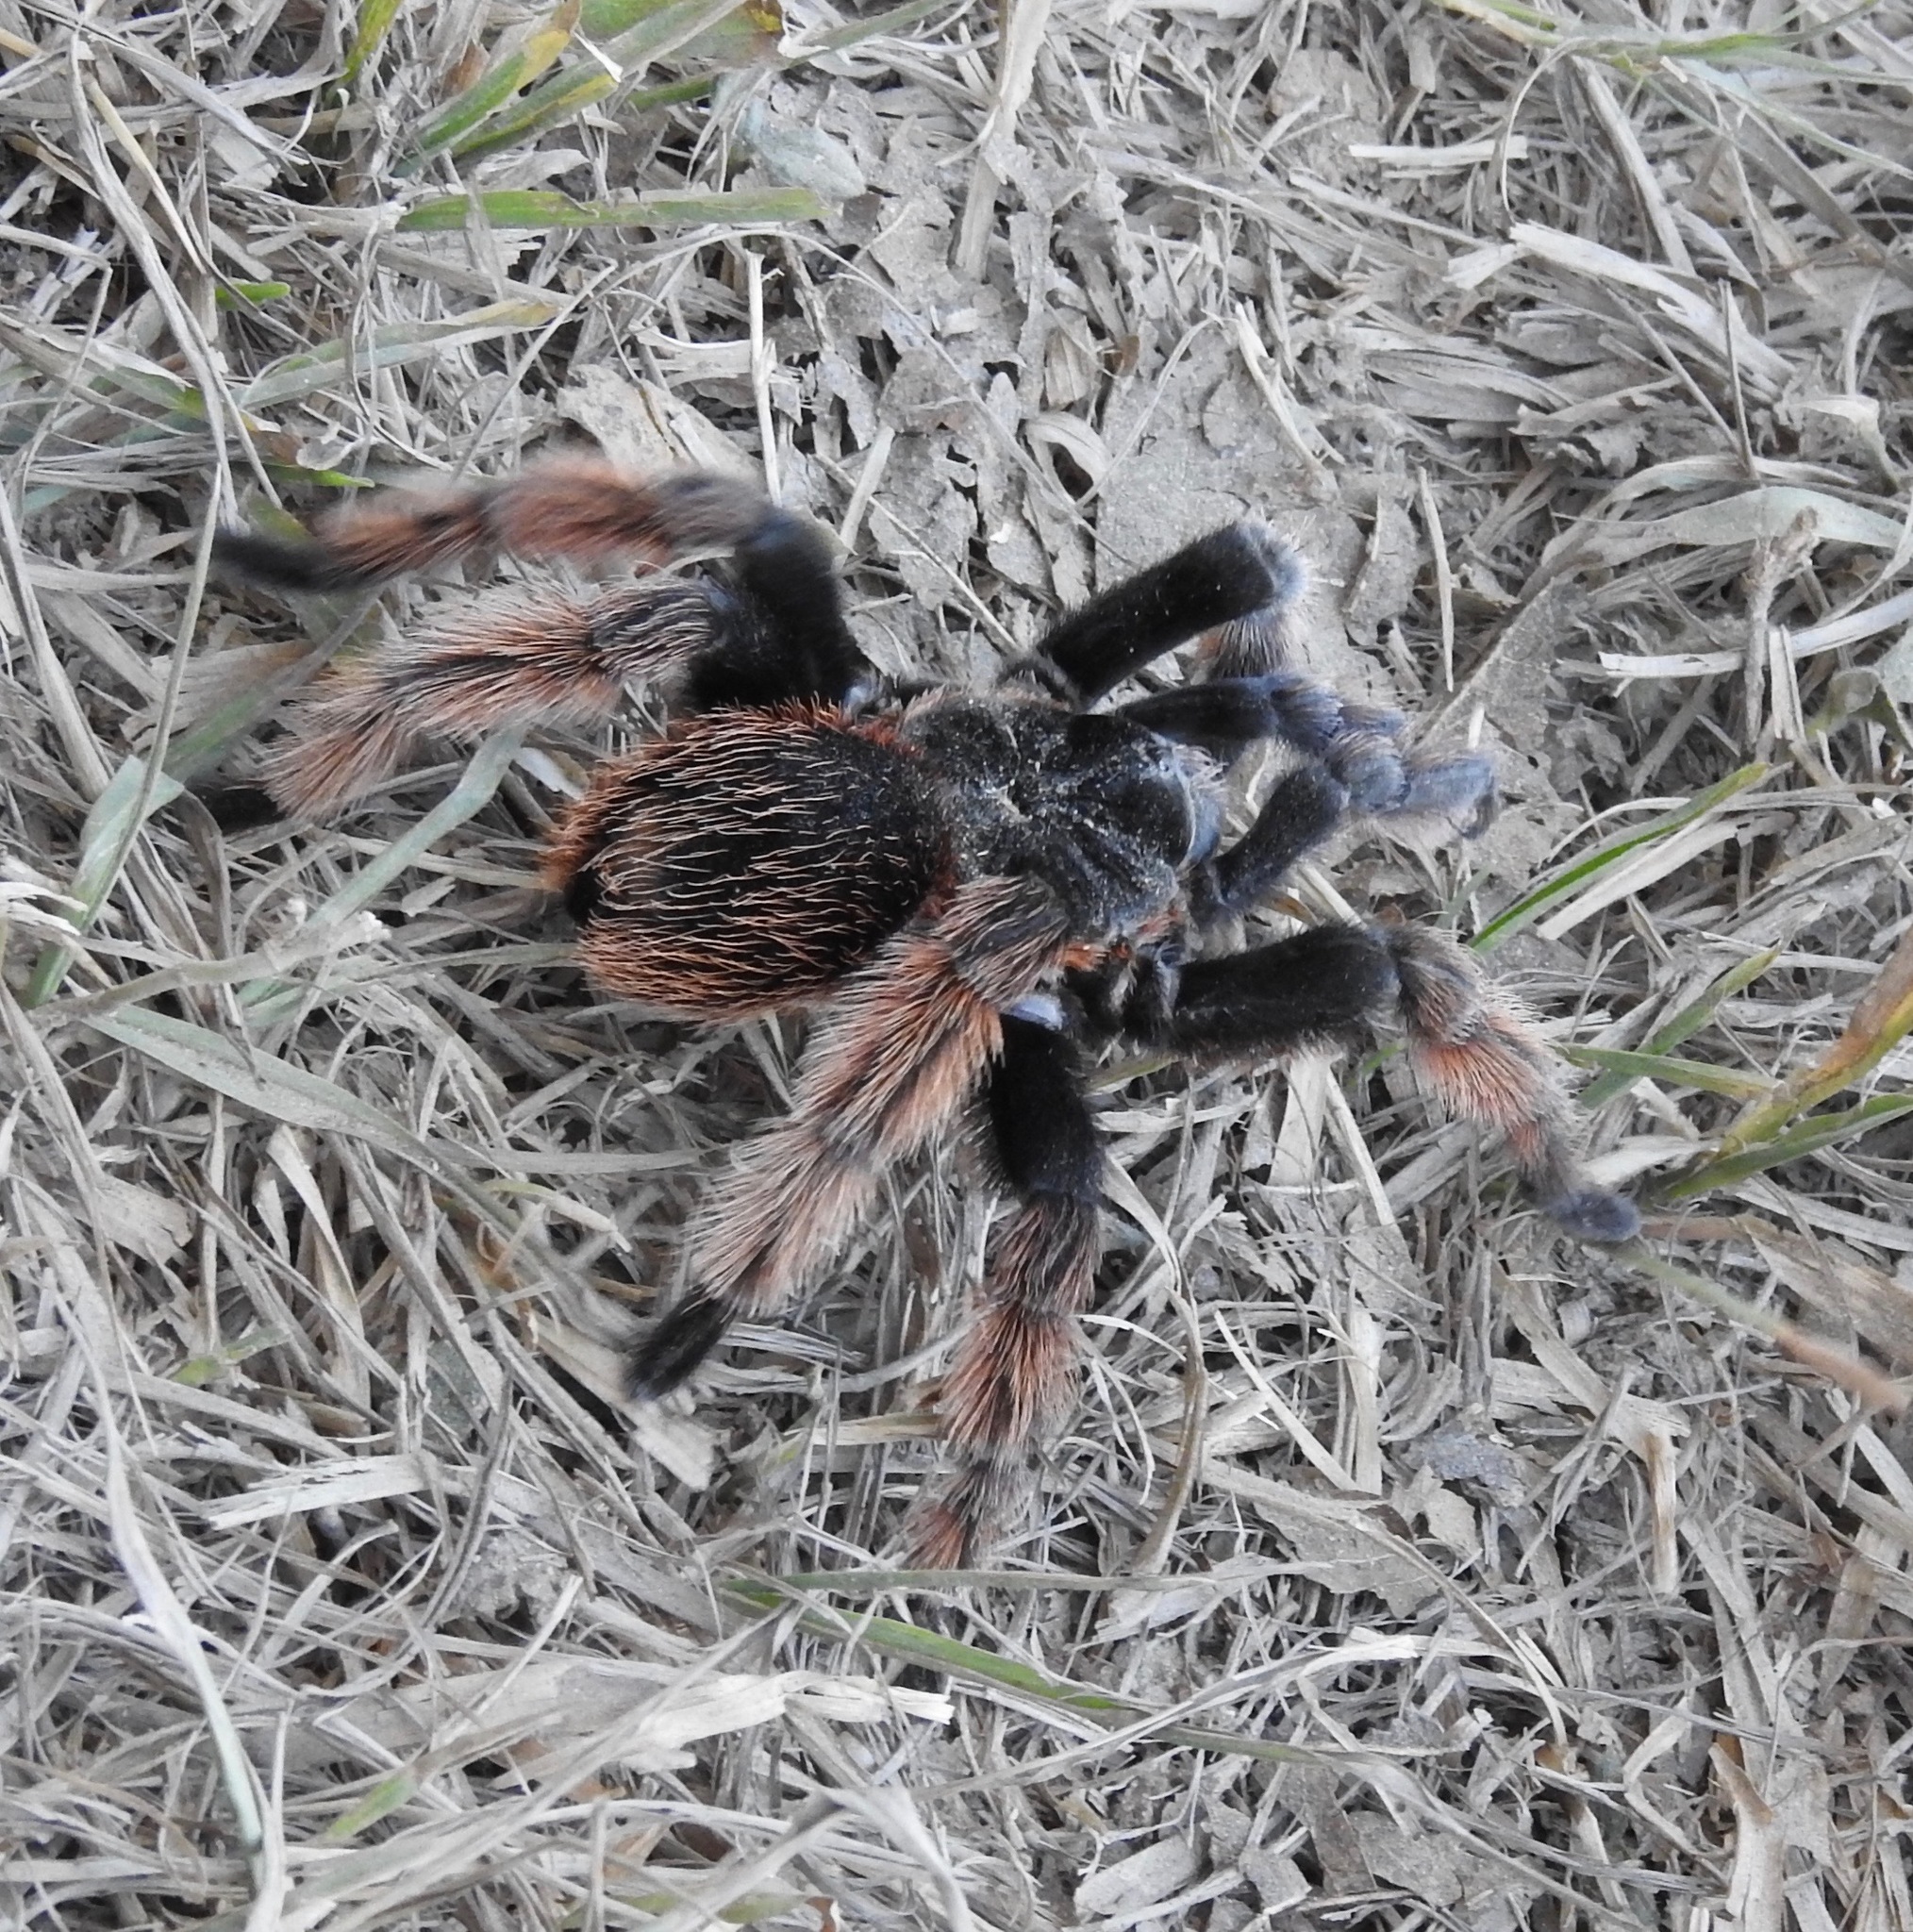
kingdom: Animalia
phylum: Arthropoda
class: Arachnida
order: Araneae
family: Theraphosidae
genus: Brachypelma
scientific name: Brachypelma klaasi
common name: Mexican pink beauty
